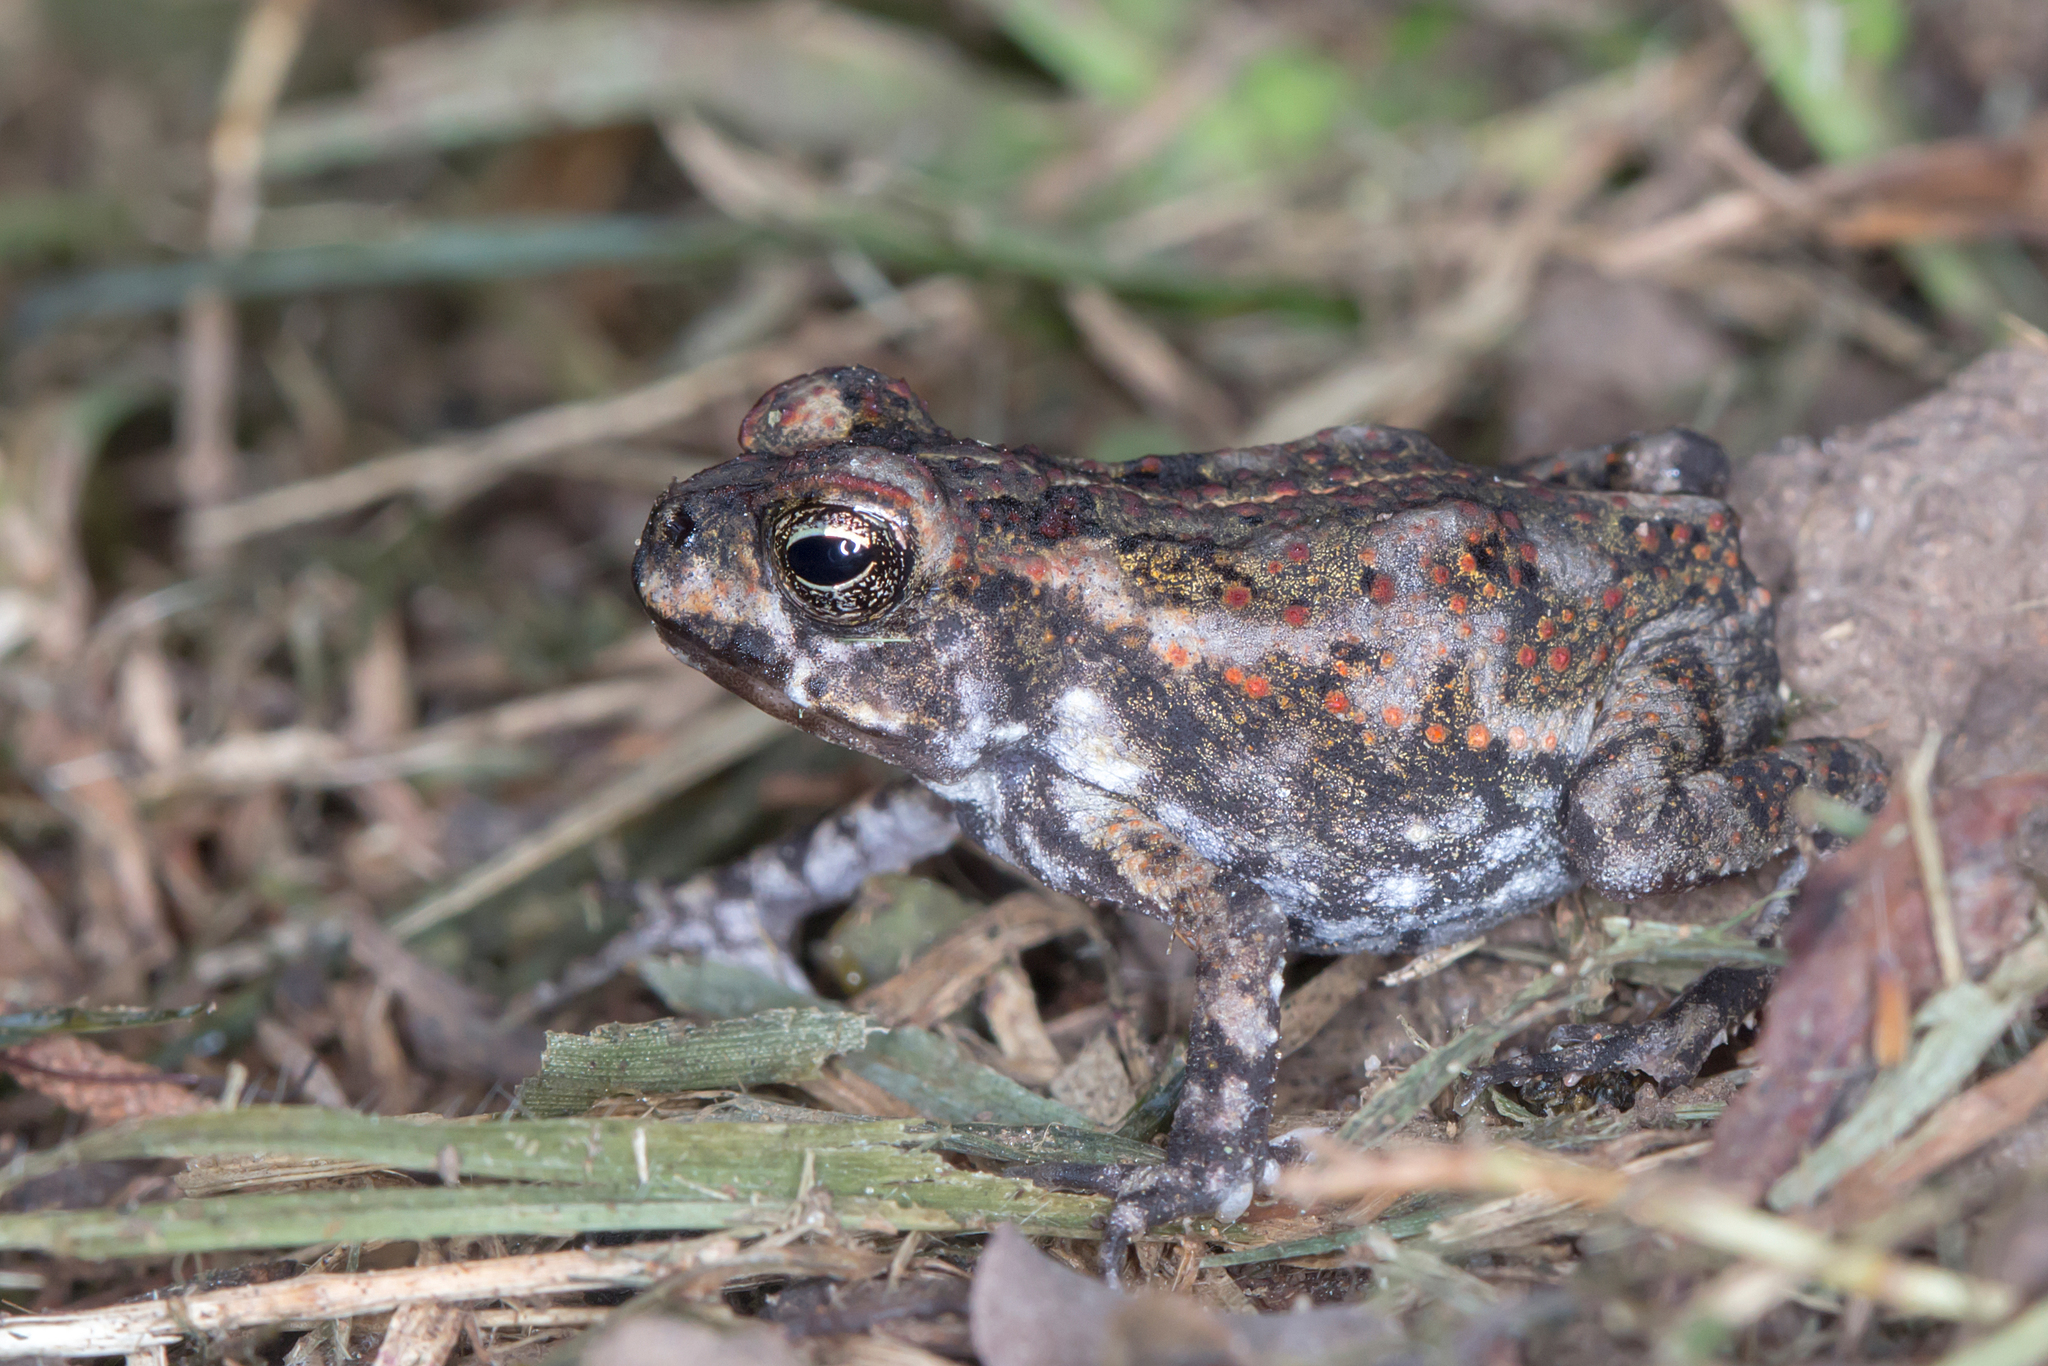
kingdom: Animalia
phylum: Chordata
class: Amphibia
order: Anura
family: Bufonidae
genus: Rhinella
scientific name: Rhinella marina
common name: Cane toad
